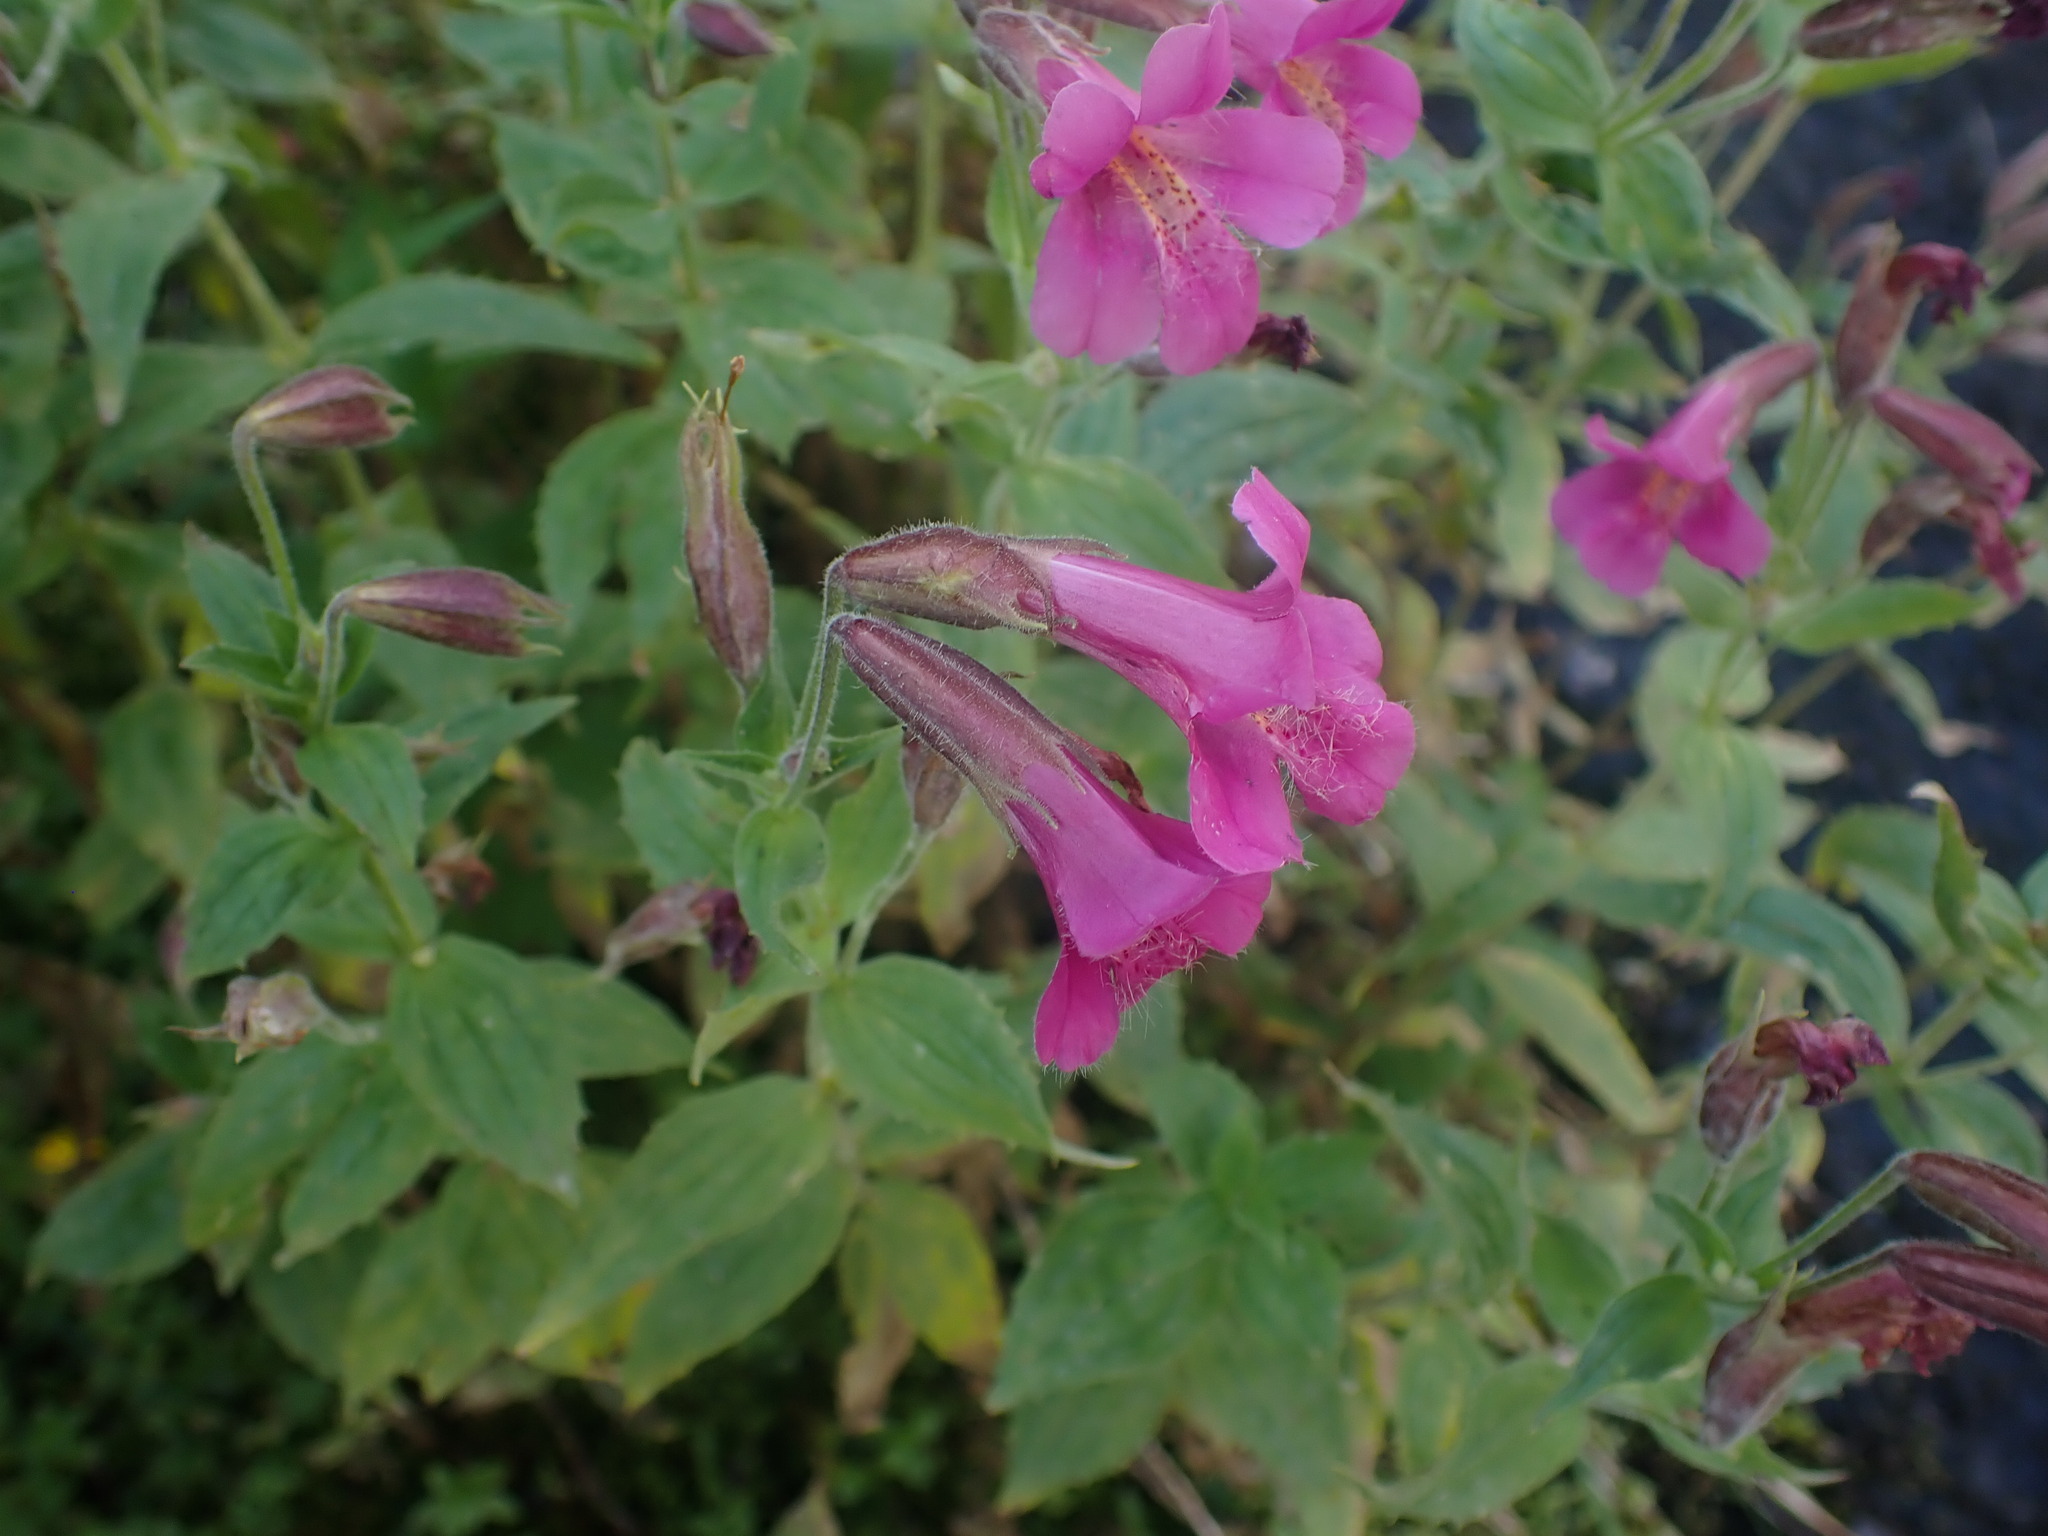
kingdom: Plantae
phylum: Tracheophyta
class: Magnoliopsida
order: Lamiales
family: Phrymaceae
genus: Erythranthe
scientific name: Erythranthe lewisii
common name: Lewis's monkey-flower
